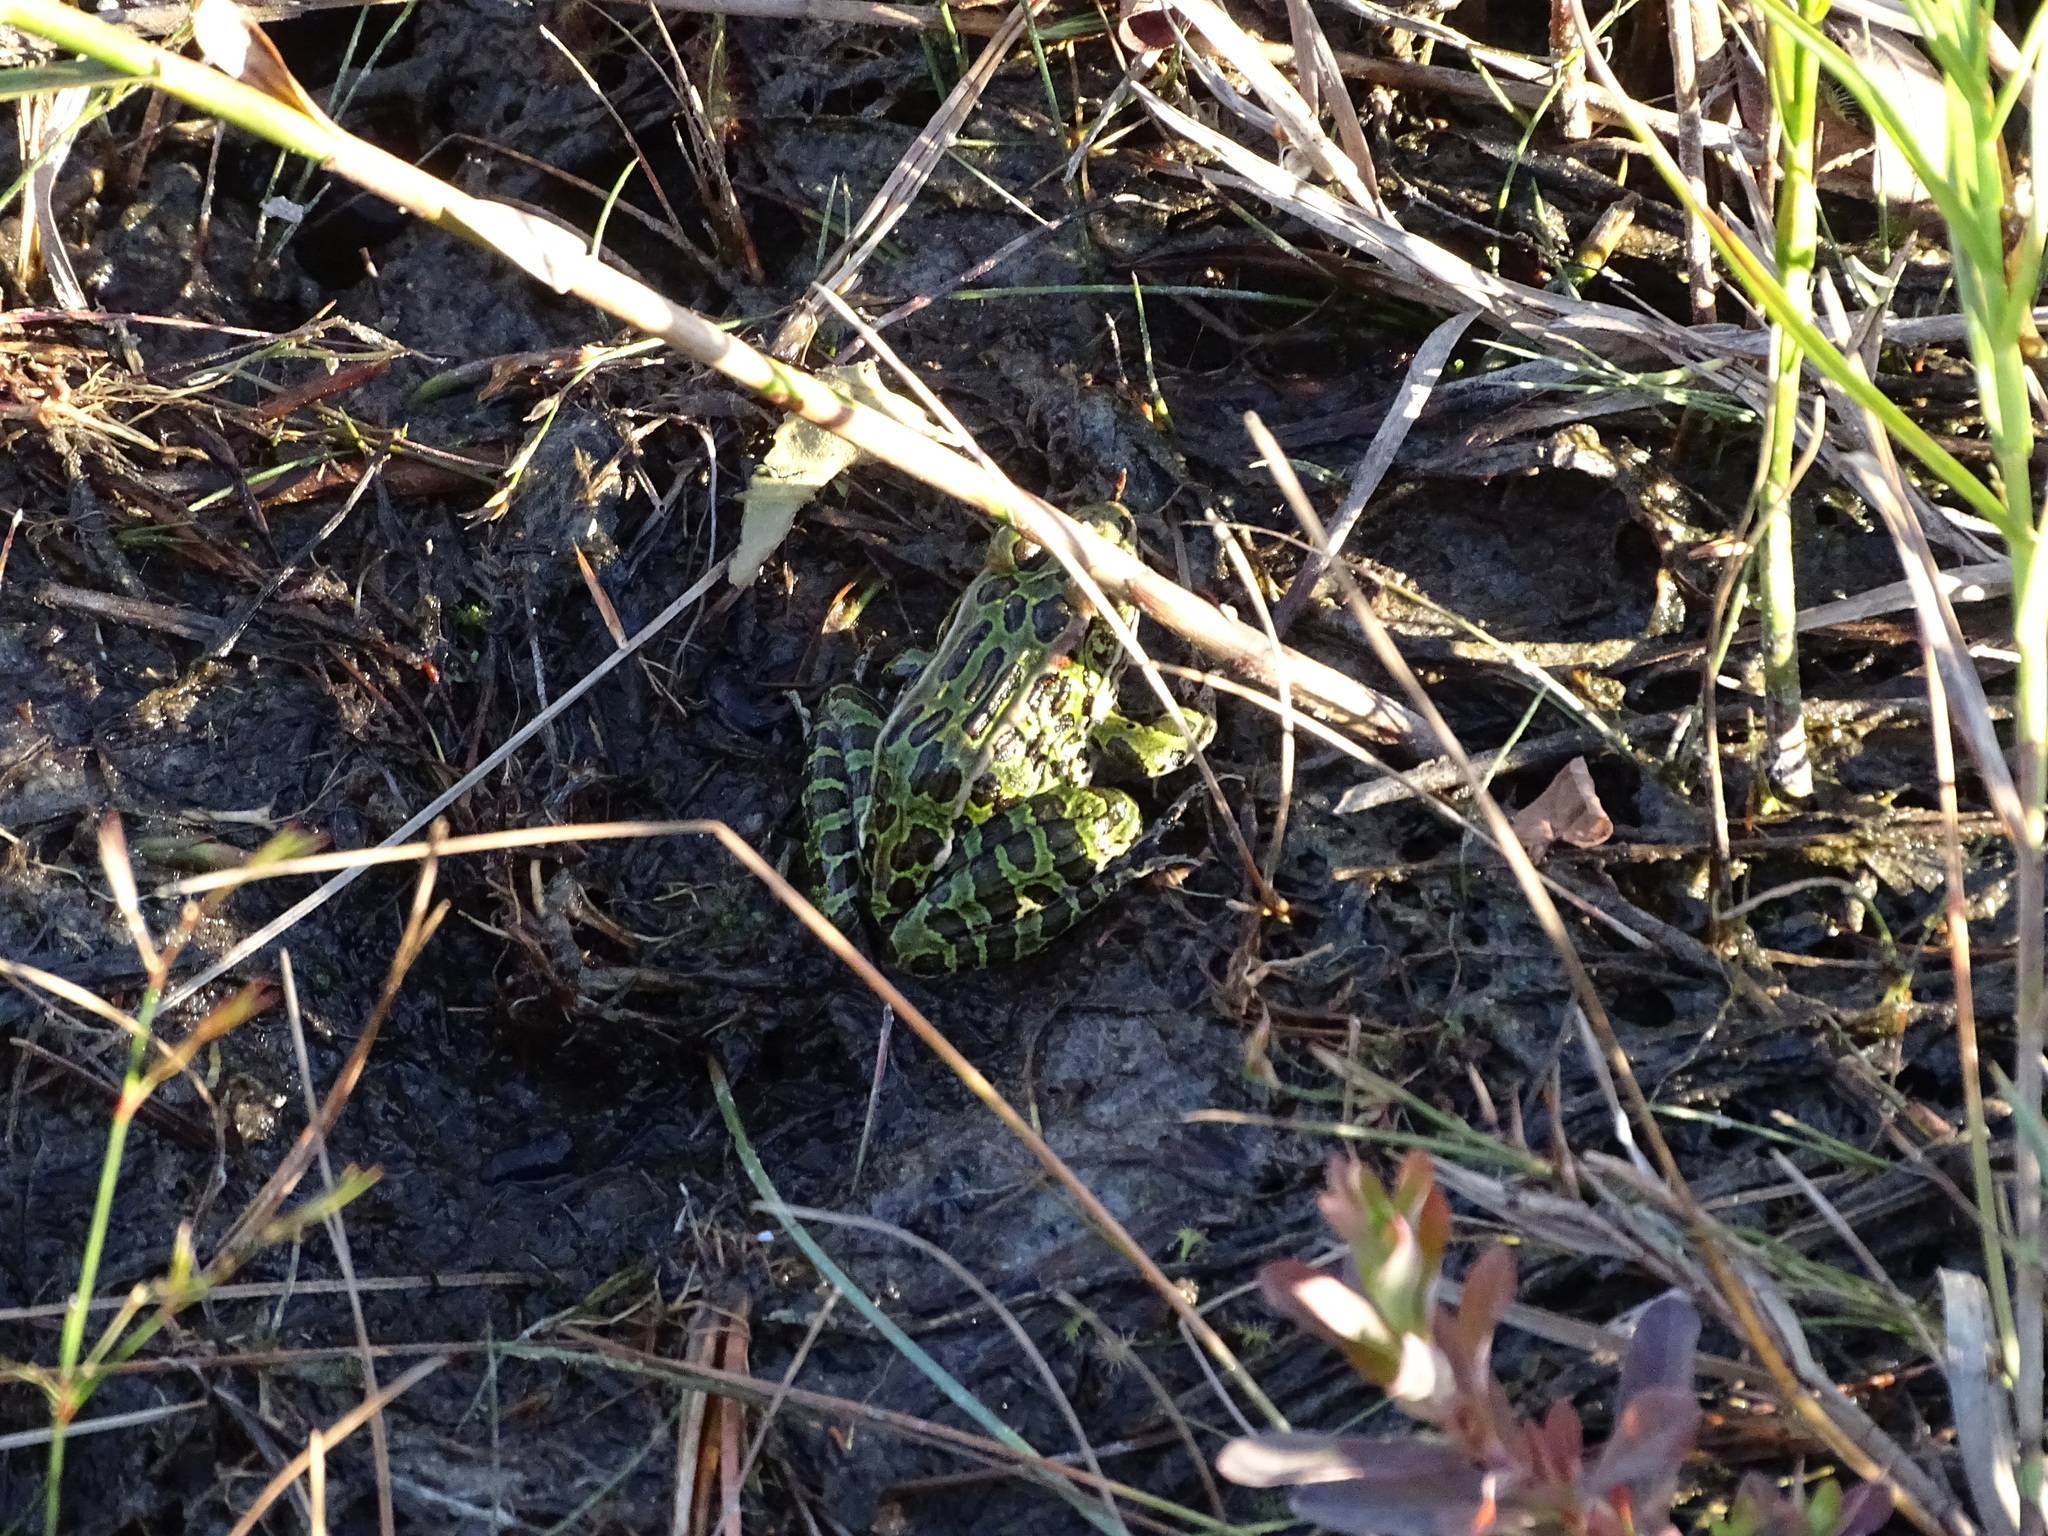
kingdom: Animalia
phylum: Chordata
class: Amphibia
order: Anura
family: Ranidae
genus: Lithobates
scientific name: Lithobates pipiens
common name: Northern leopard frog
